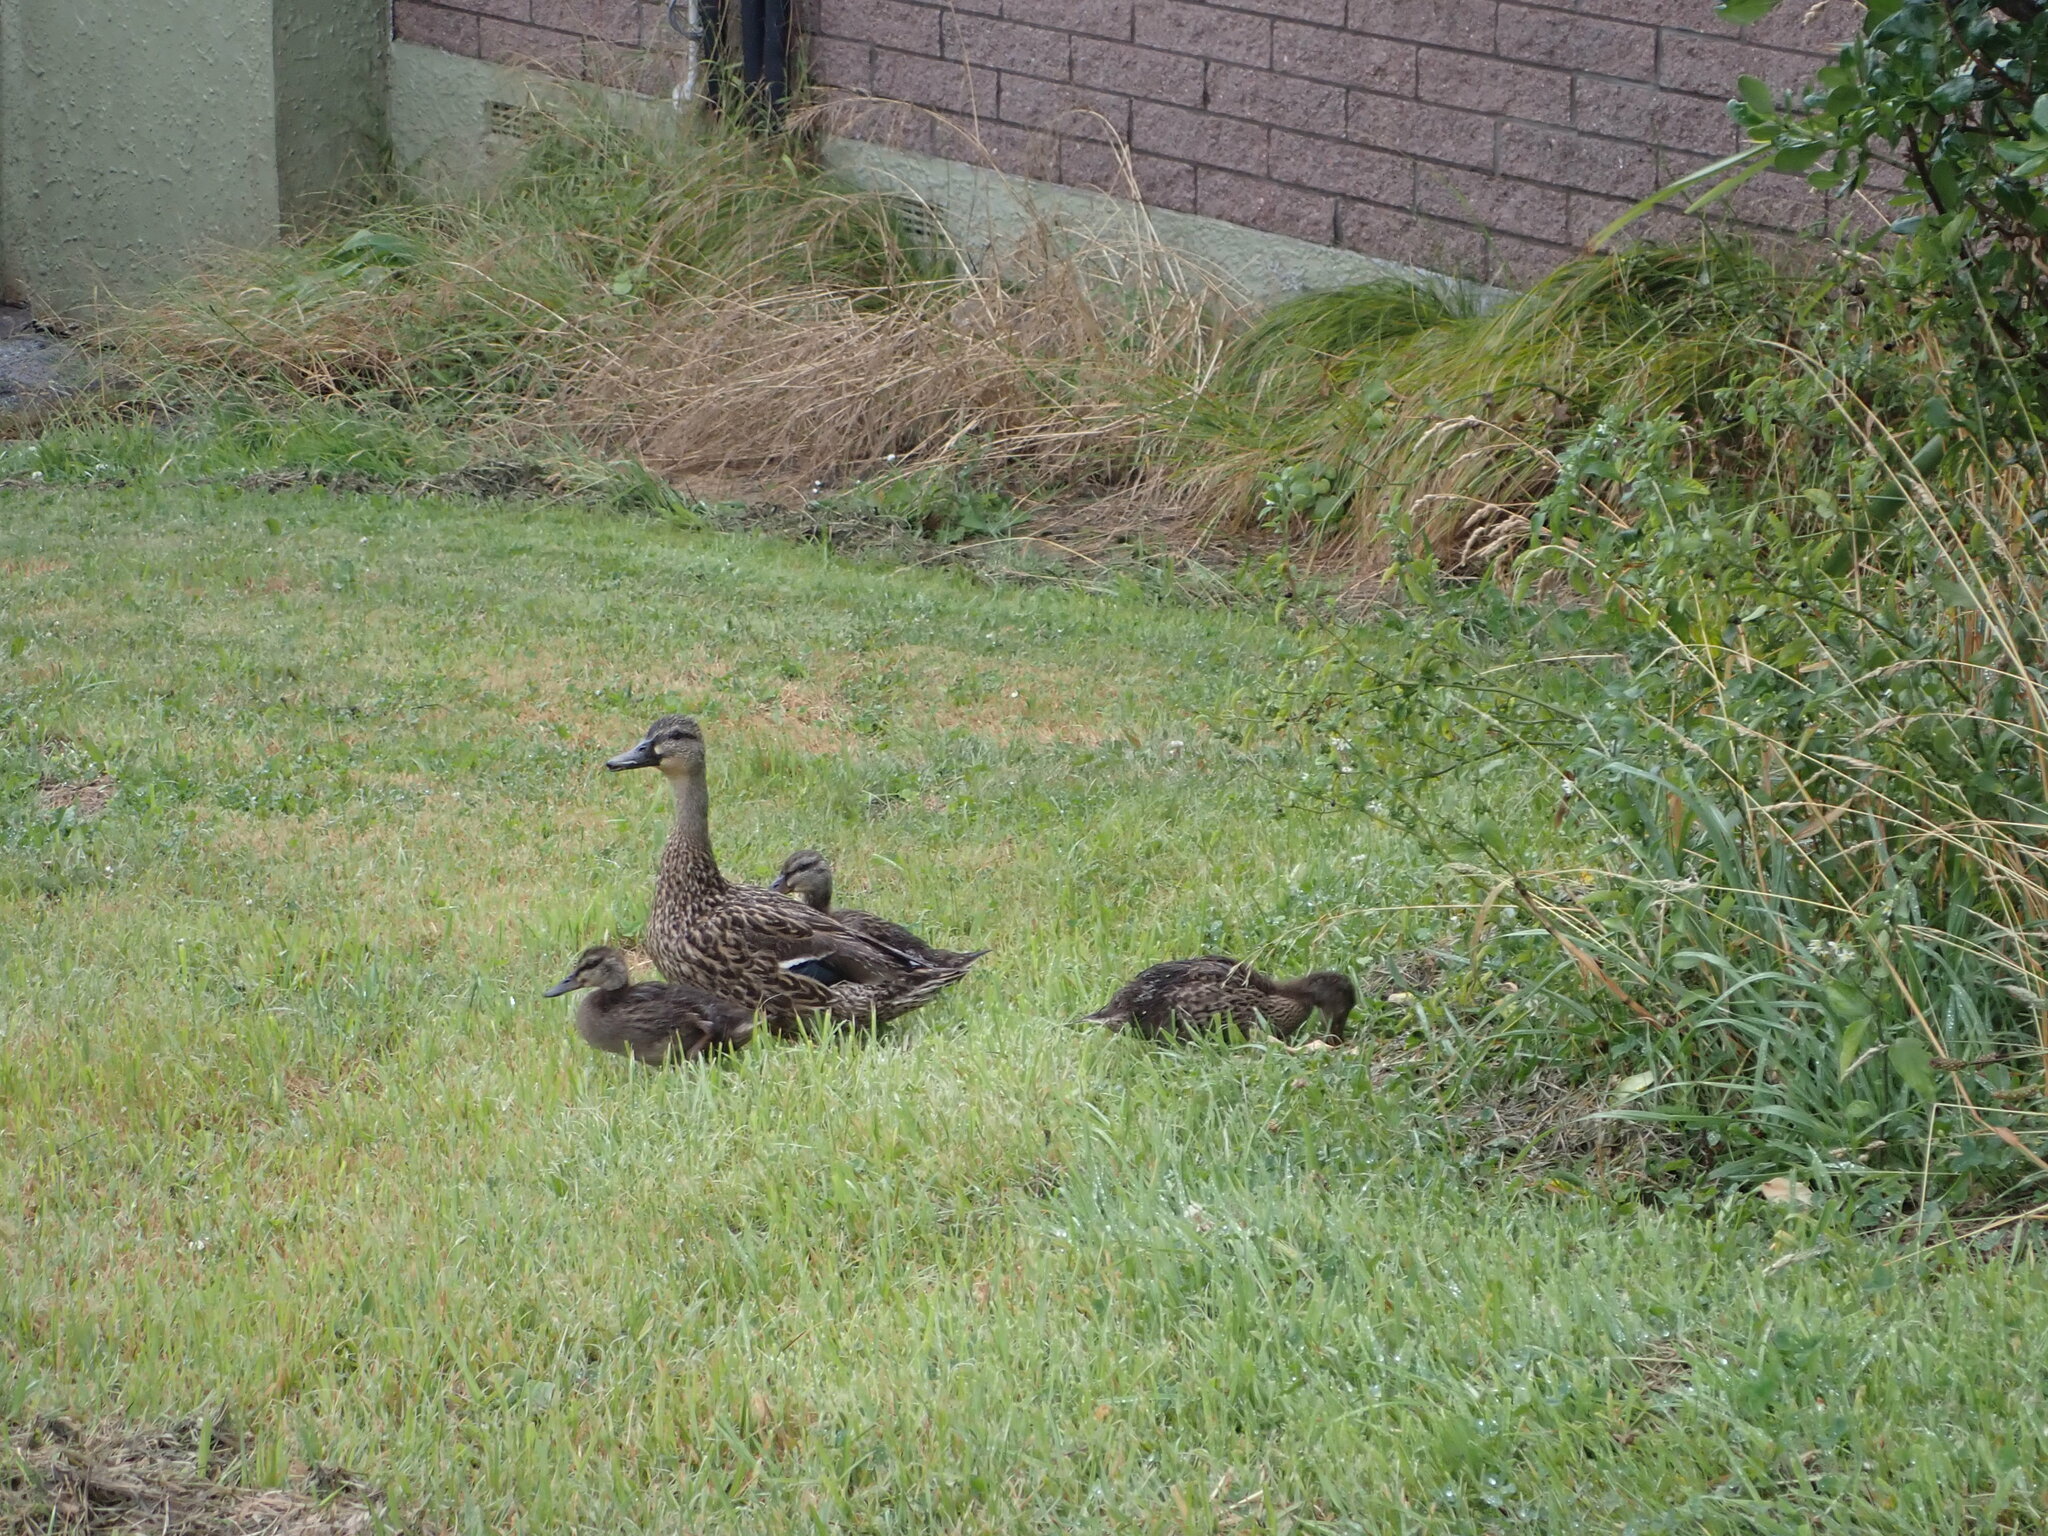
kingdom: Animalia
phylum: Chordata
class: Aves
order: Anseriformes
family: Anatidae
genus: Anas
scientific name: Anas
